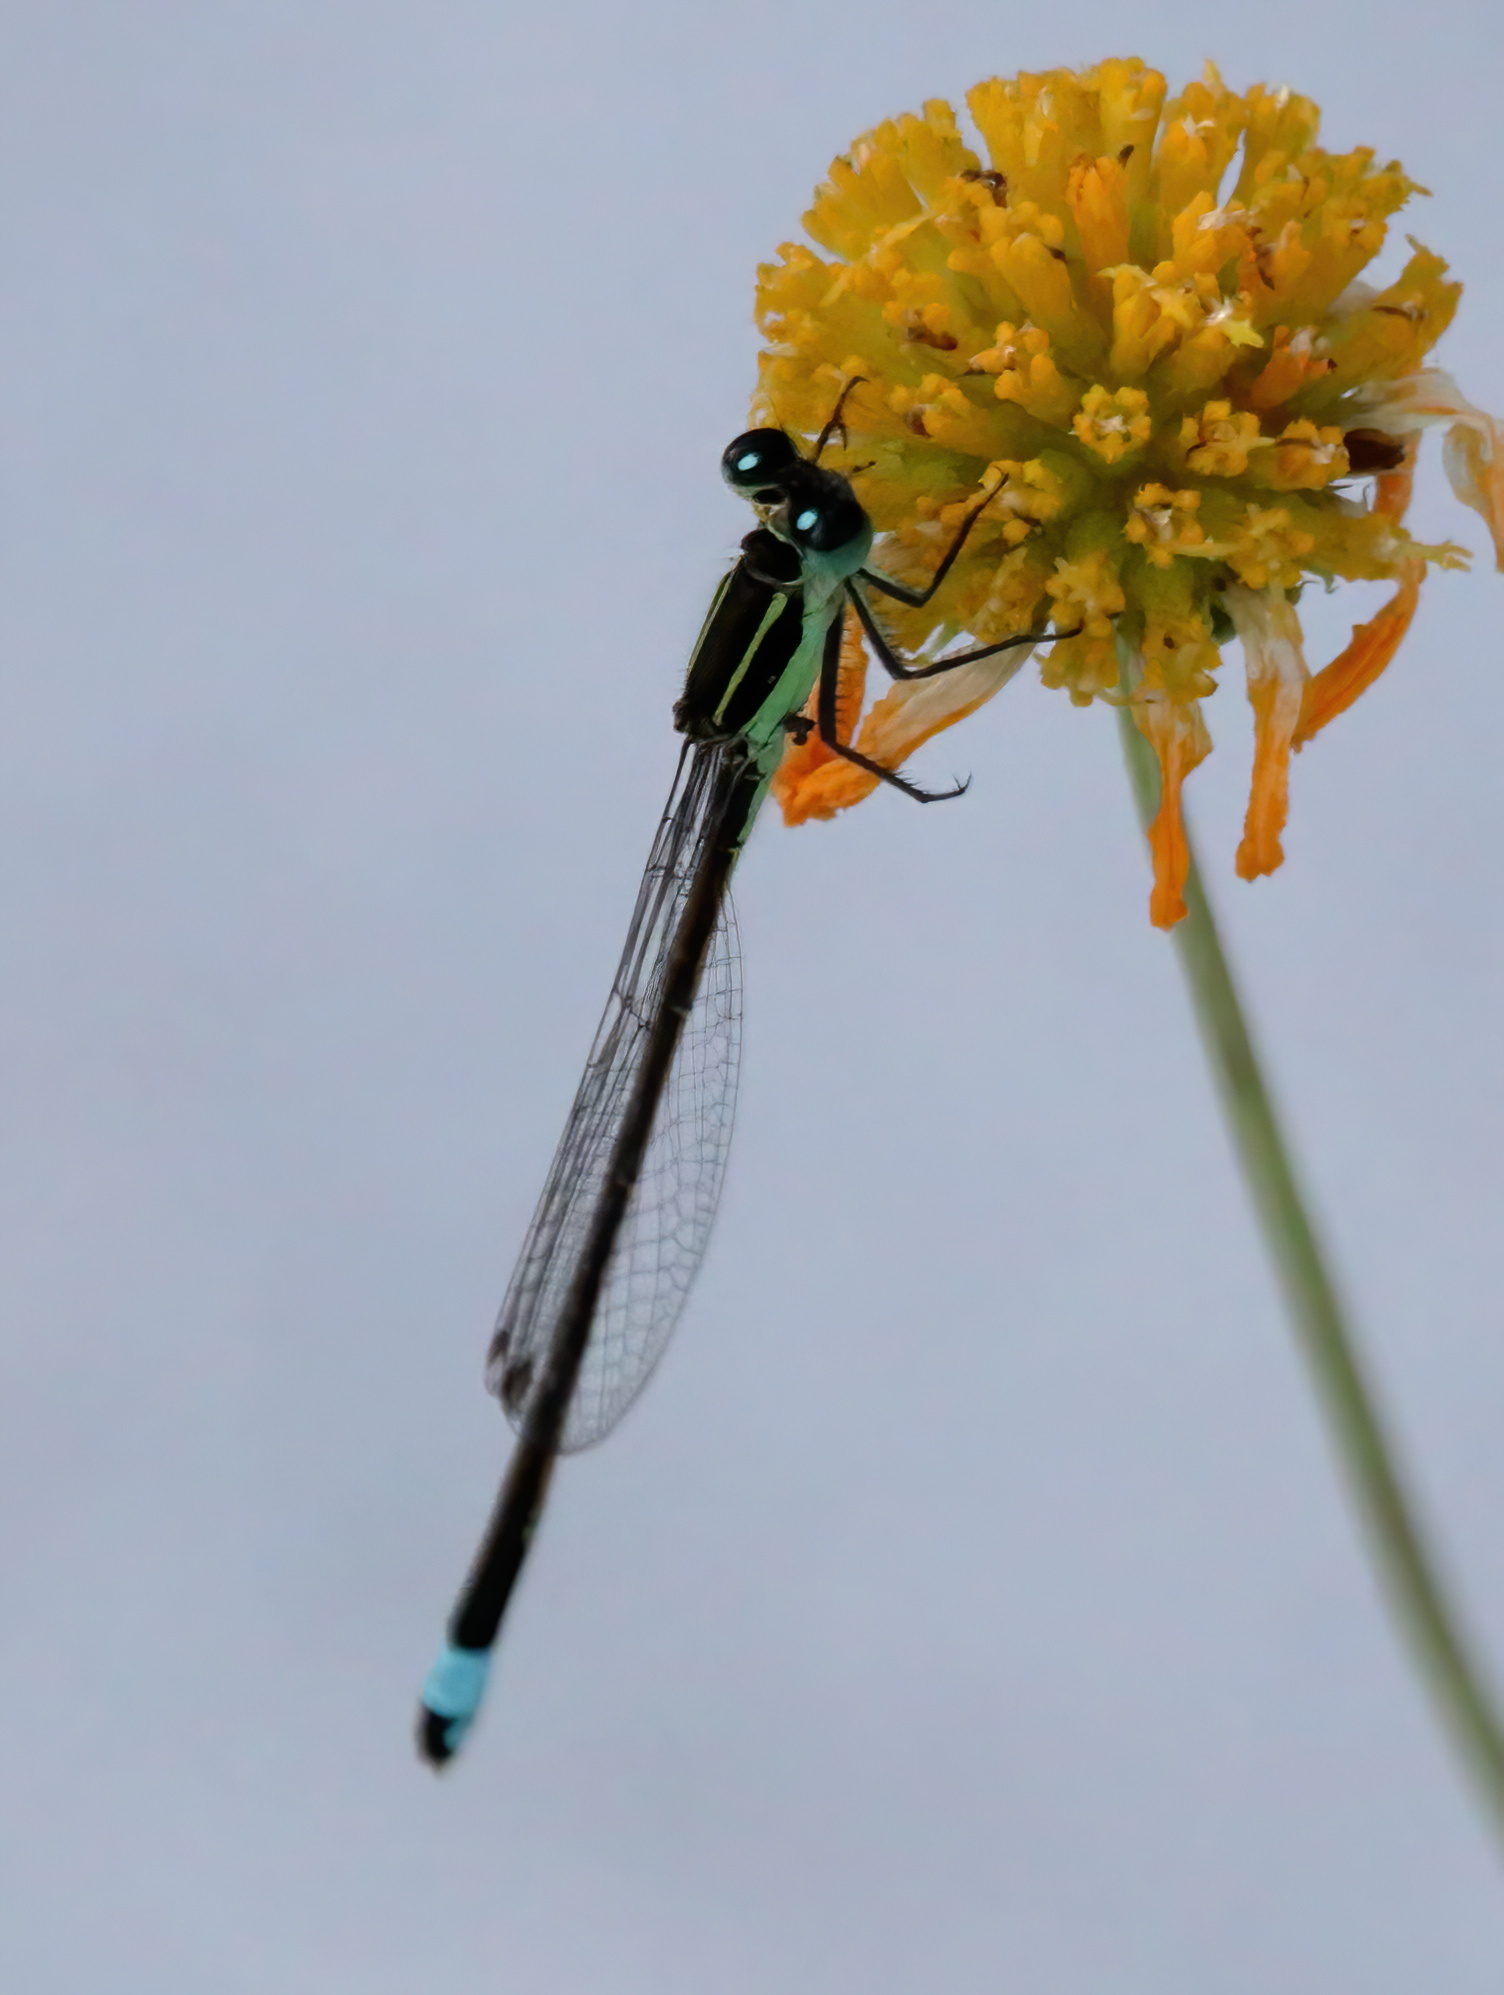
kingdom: Animalia
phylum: Arthropoda
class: Insecta
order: Odonata
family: Coenagrionidae
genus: Ischnura
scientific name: Ischnura ramburii
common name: Rambur's forktail
